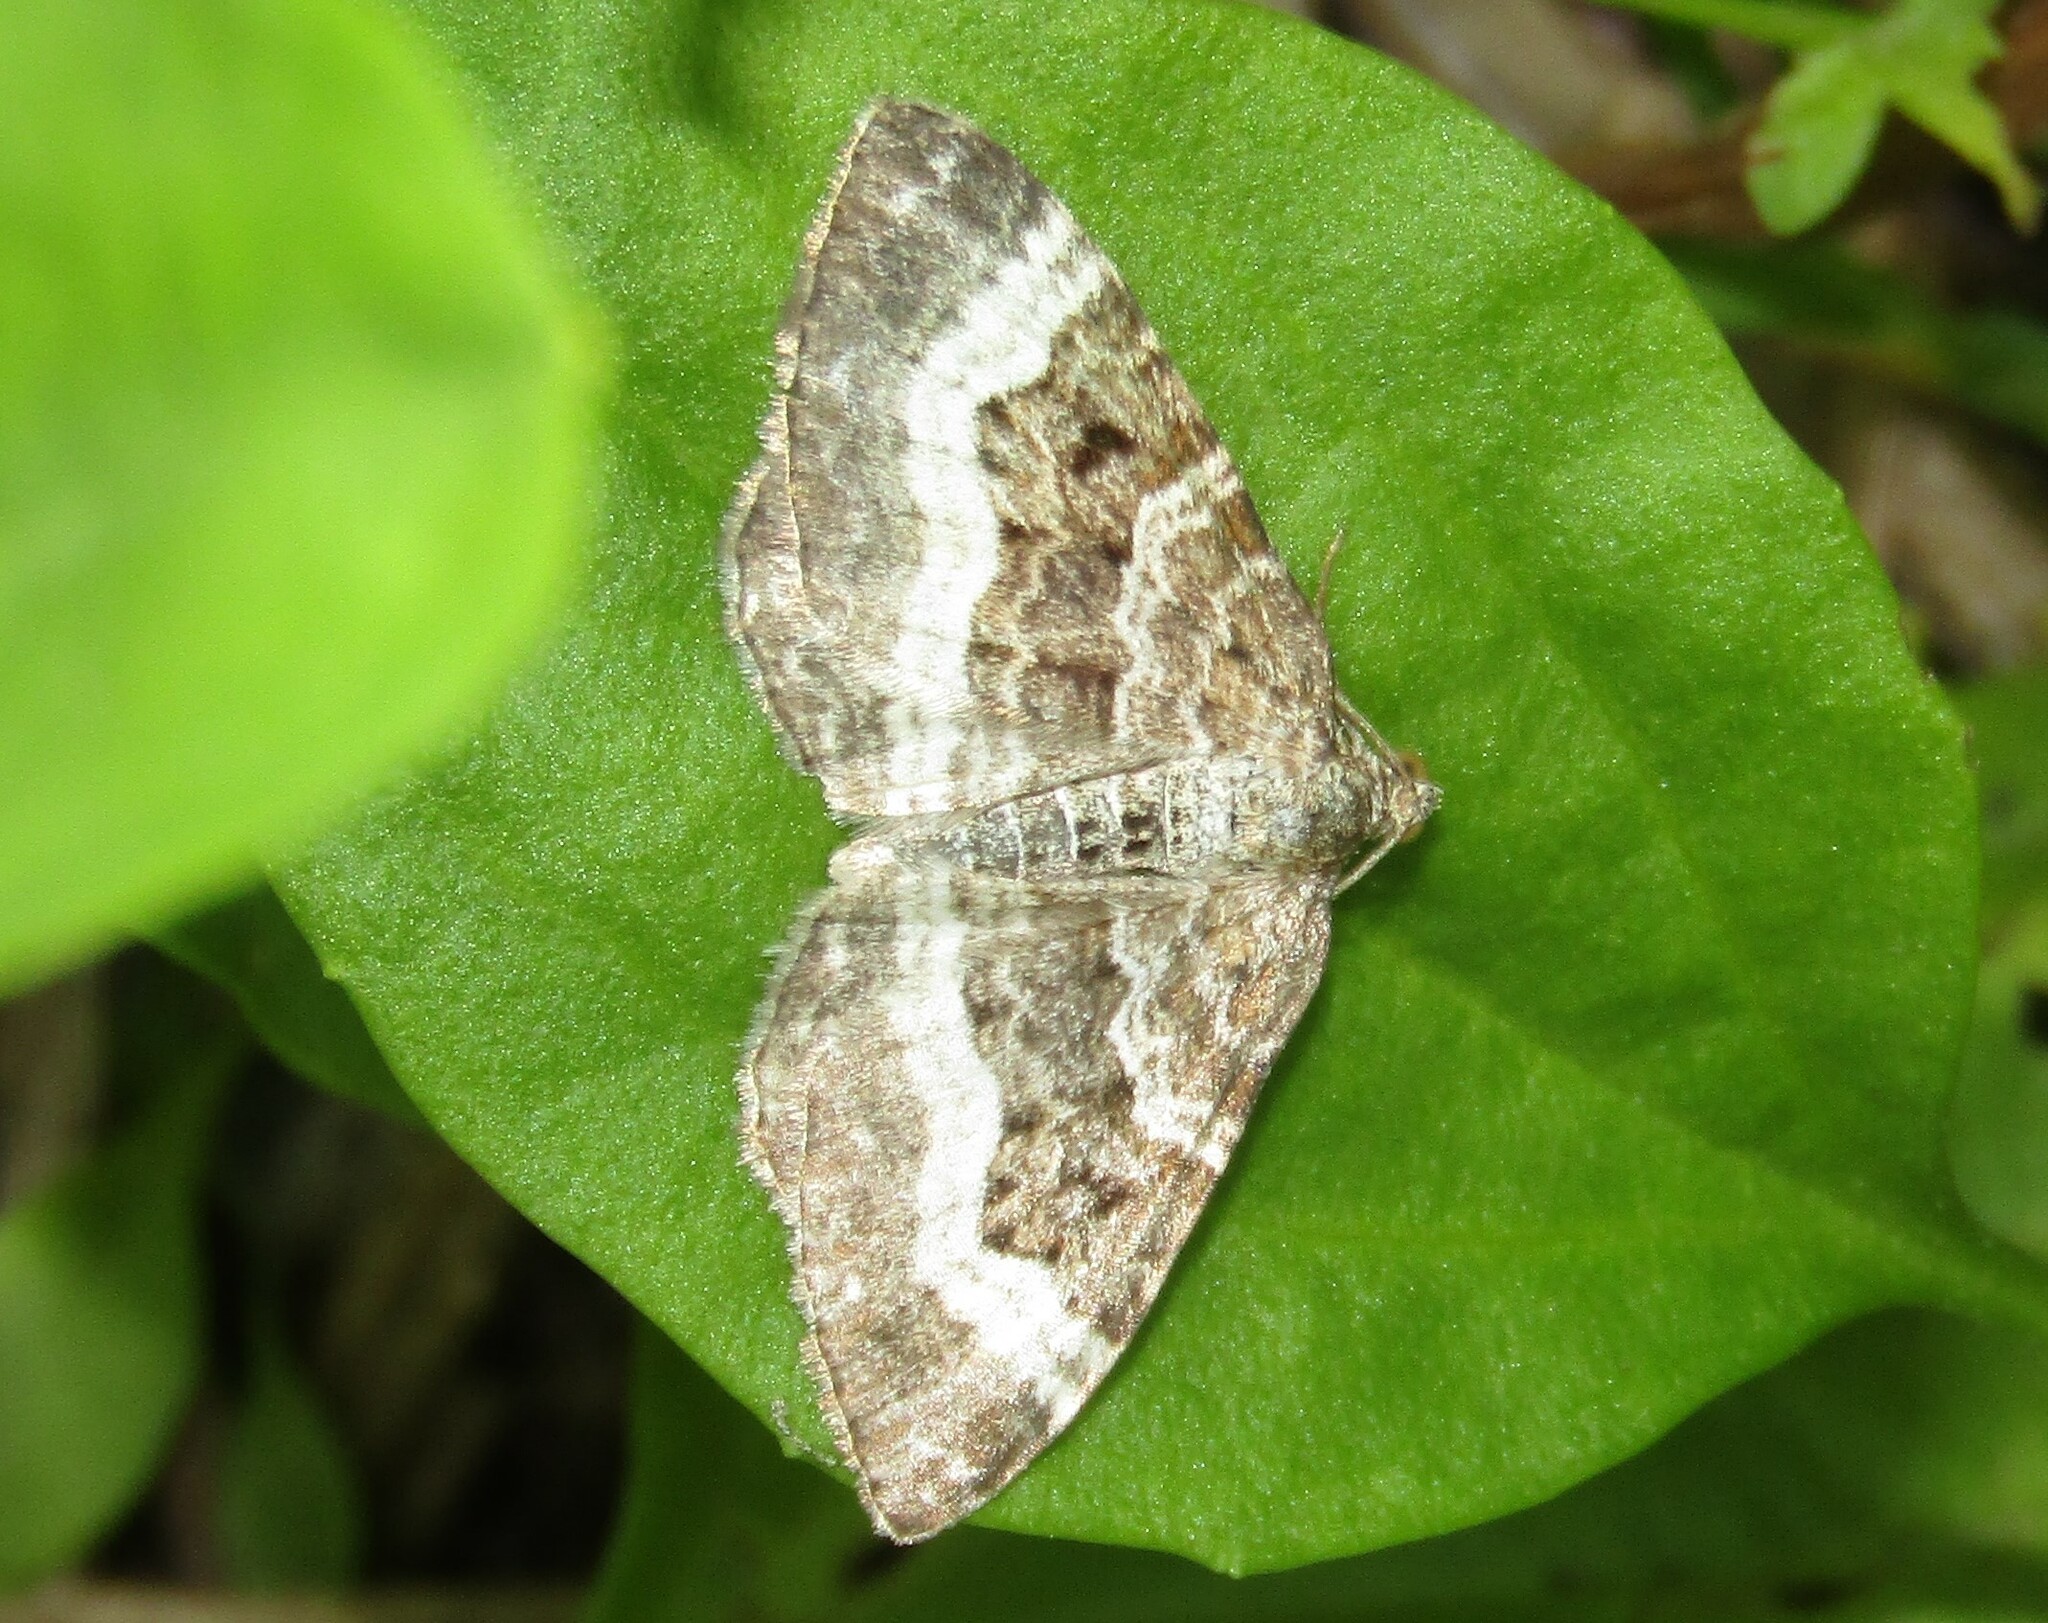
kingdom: Animalia
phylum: Arthropoda
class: Insecta
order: Lepidoptera
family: Geometridae
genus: Epirrhoe
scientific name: Epirrhoe alternata
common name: Common carpet
